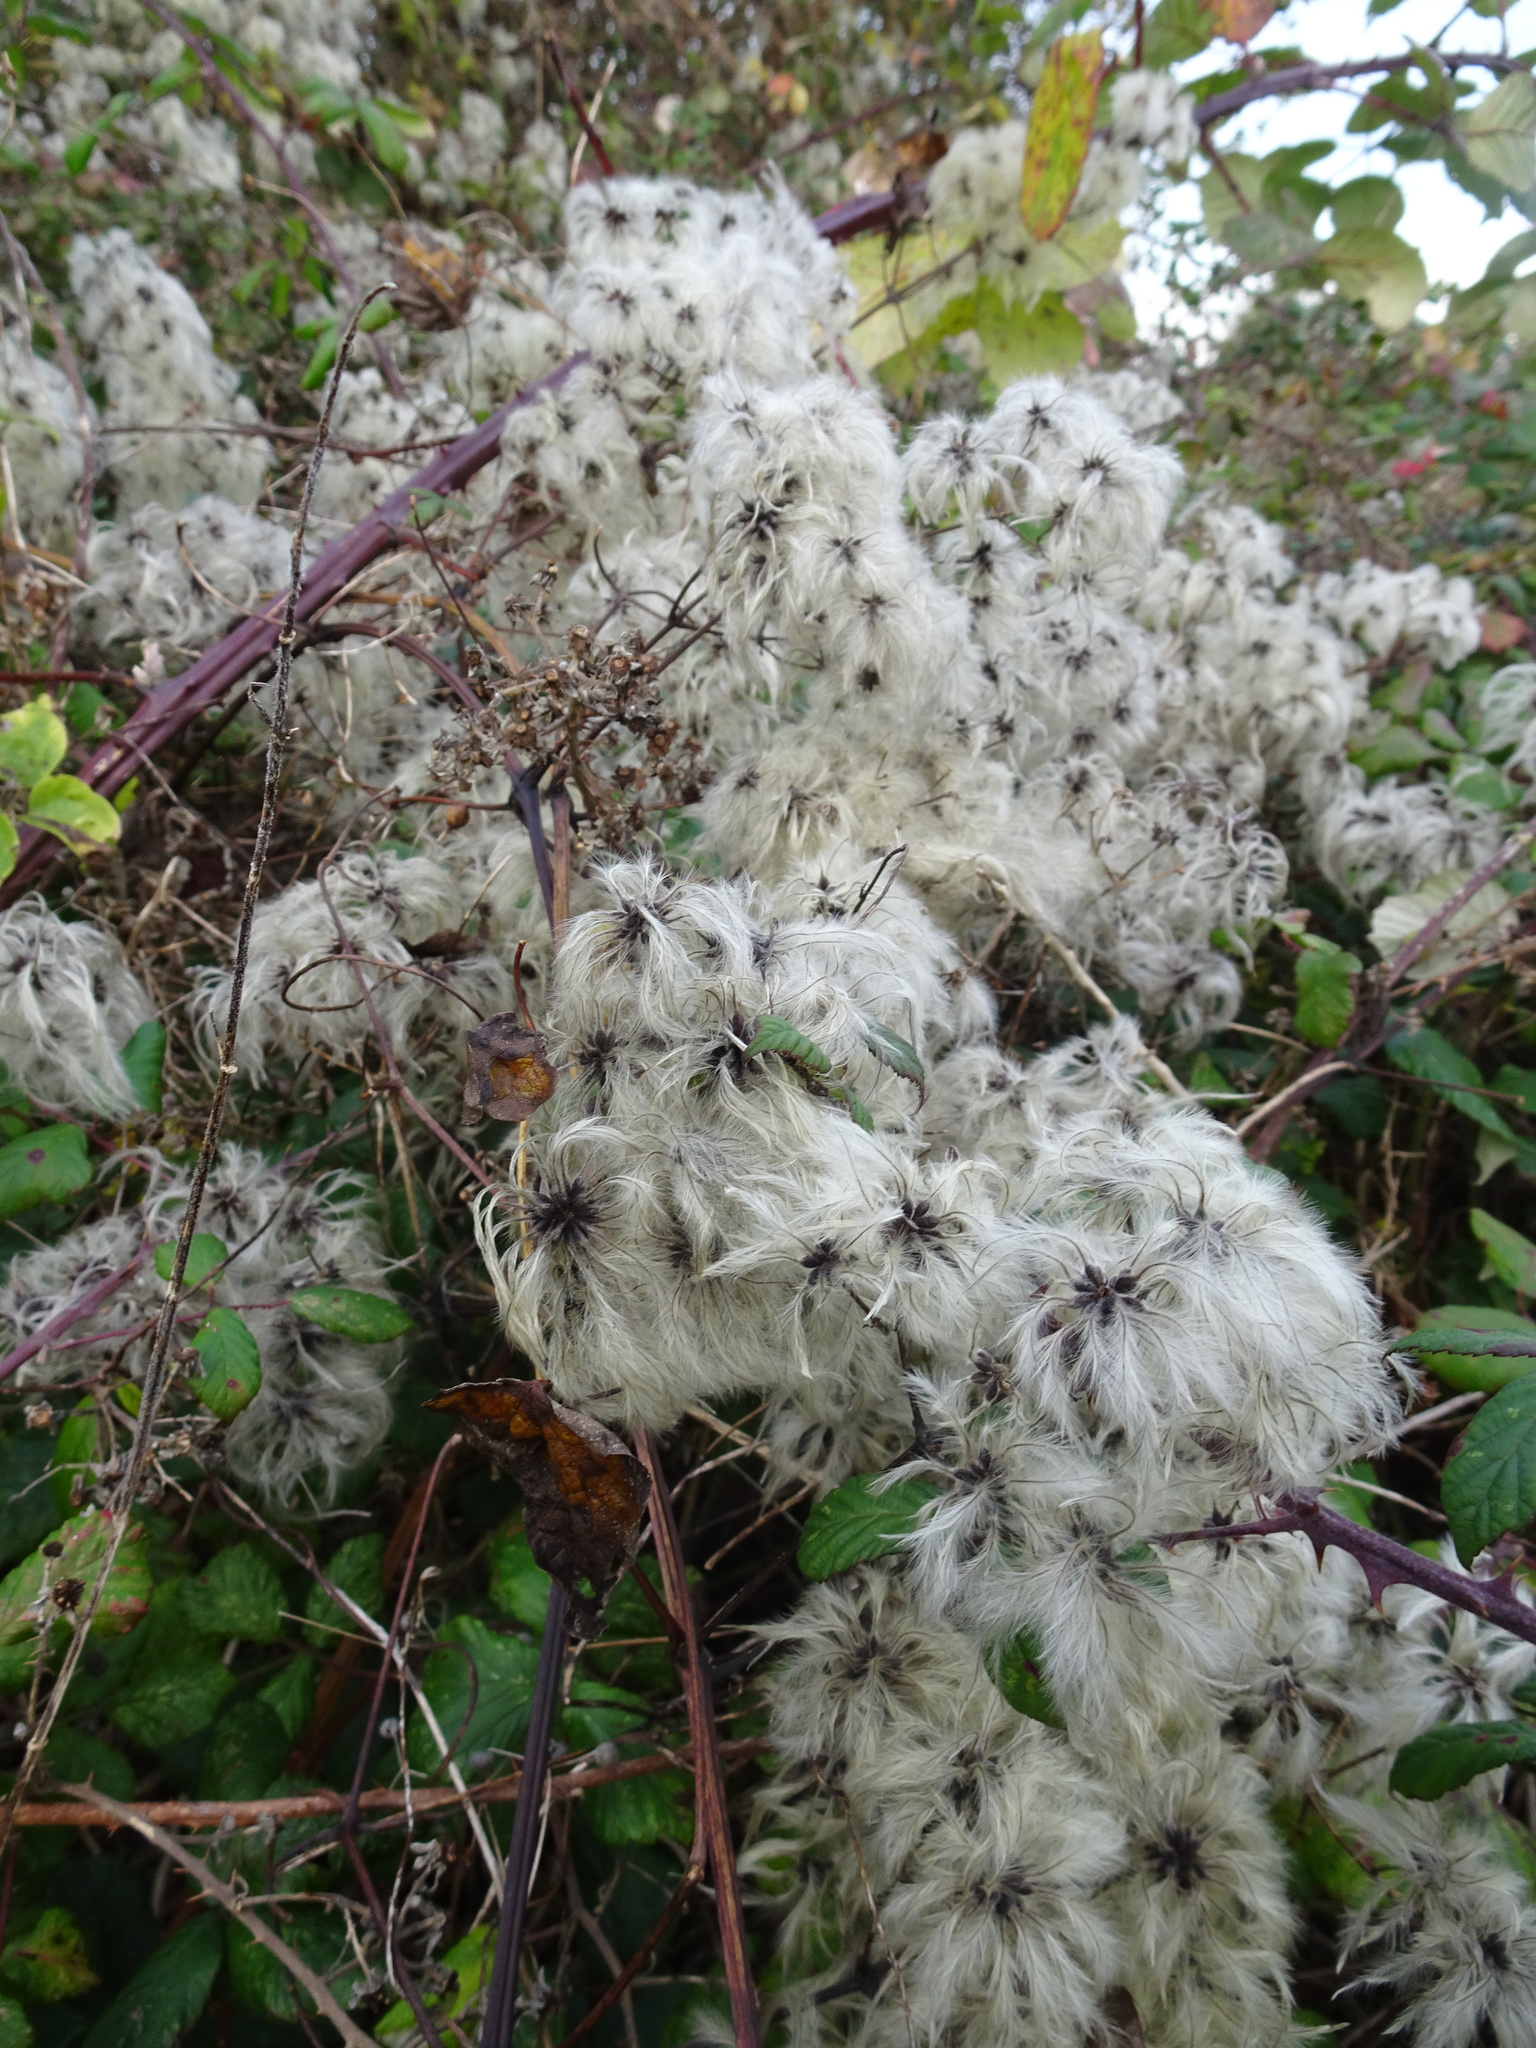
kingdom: Plantae
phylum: Tracheophyta
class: Magnoliopsida
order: Ranunculales
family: Ranunculaceae
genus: Clematis
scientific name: Clematis vitalba
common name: Evergreen clematis
